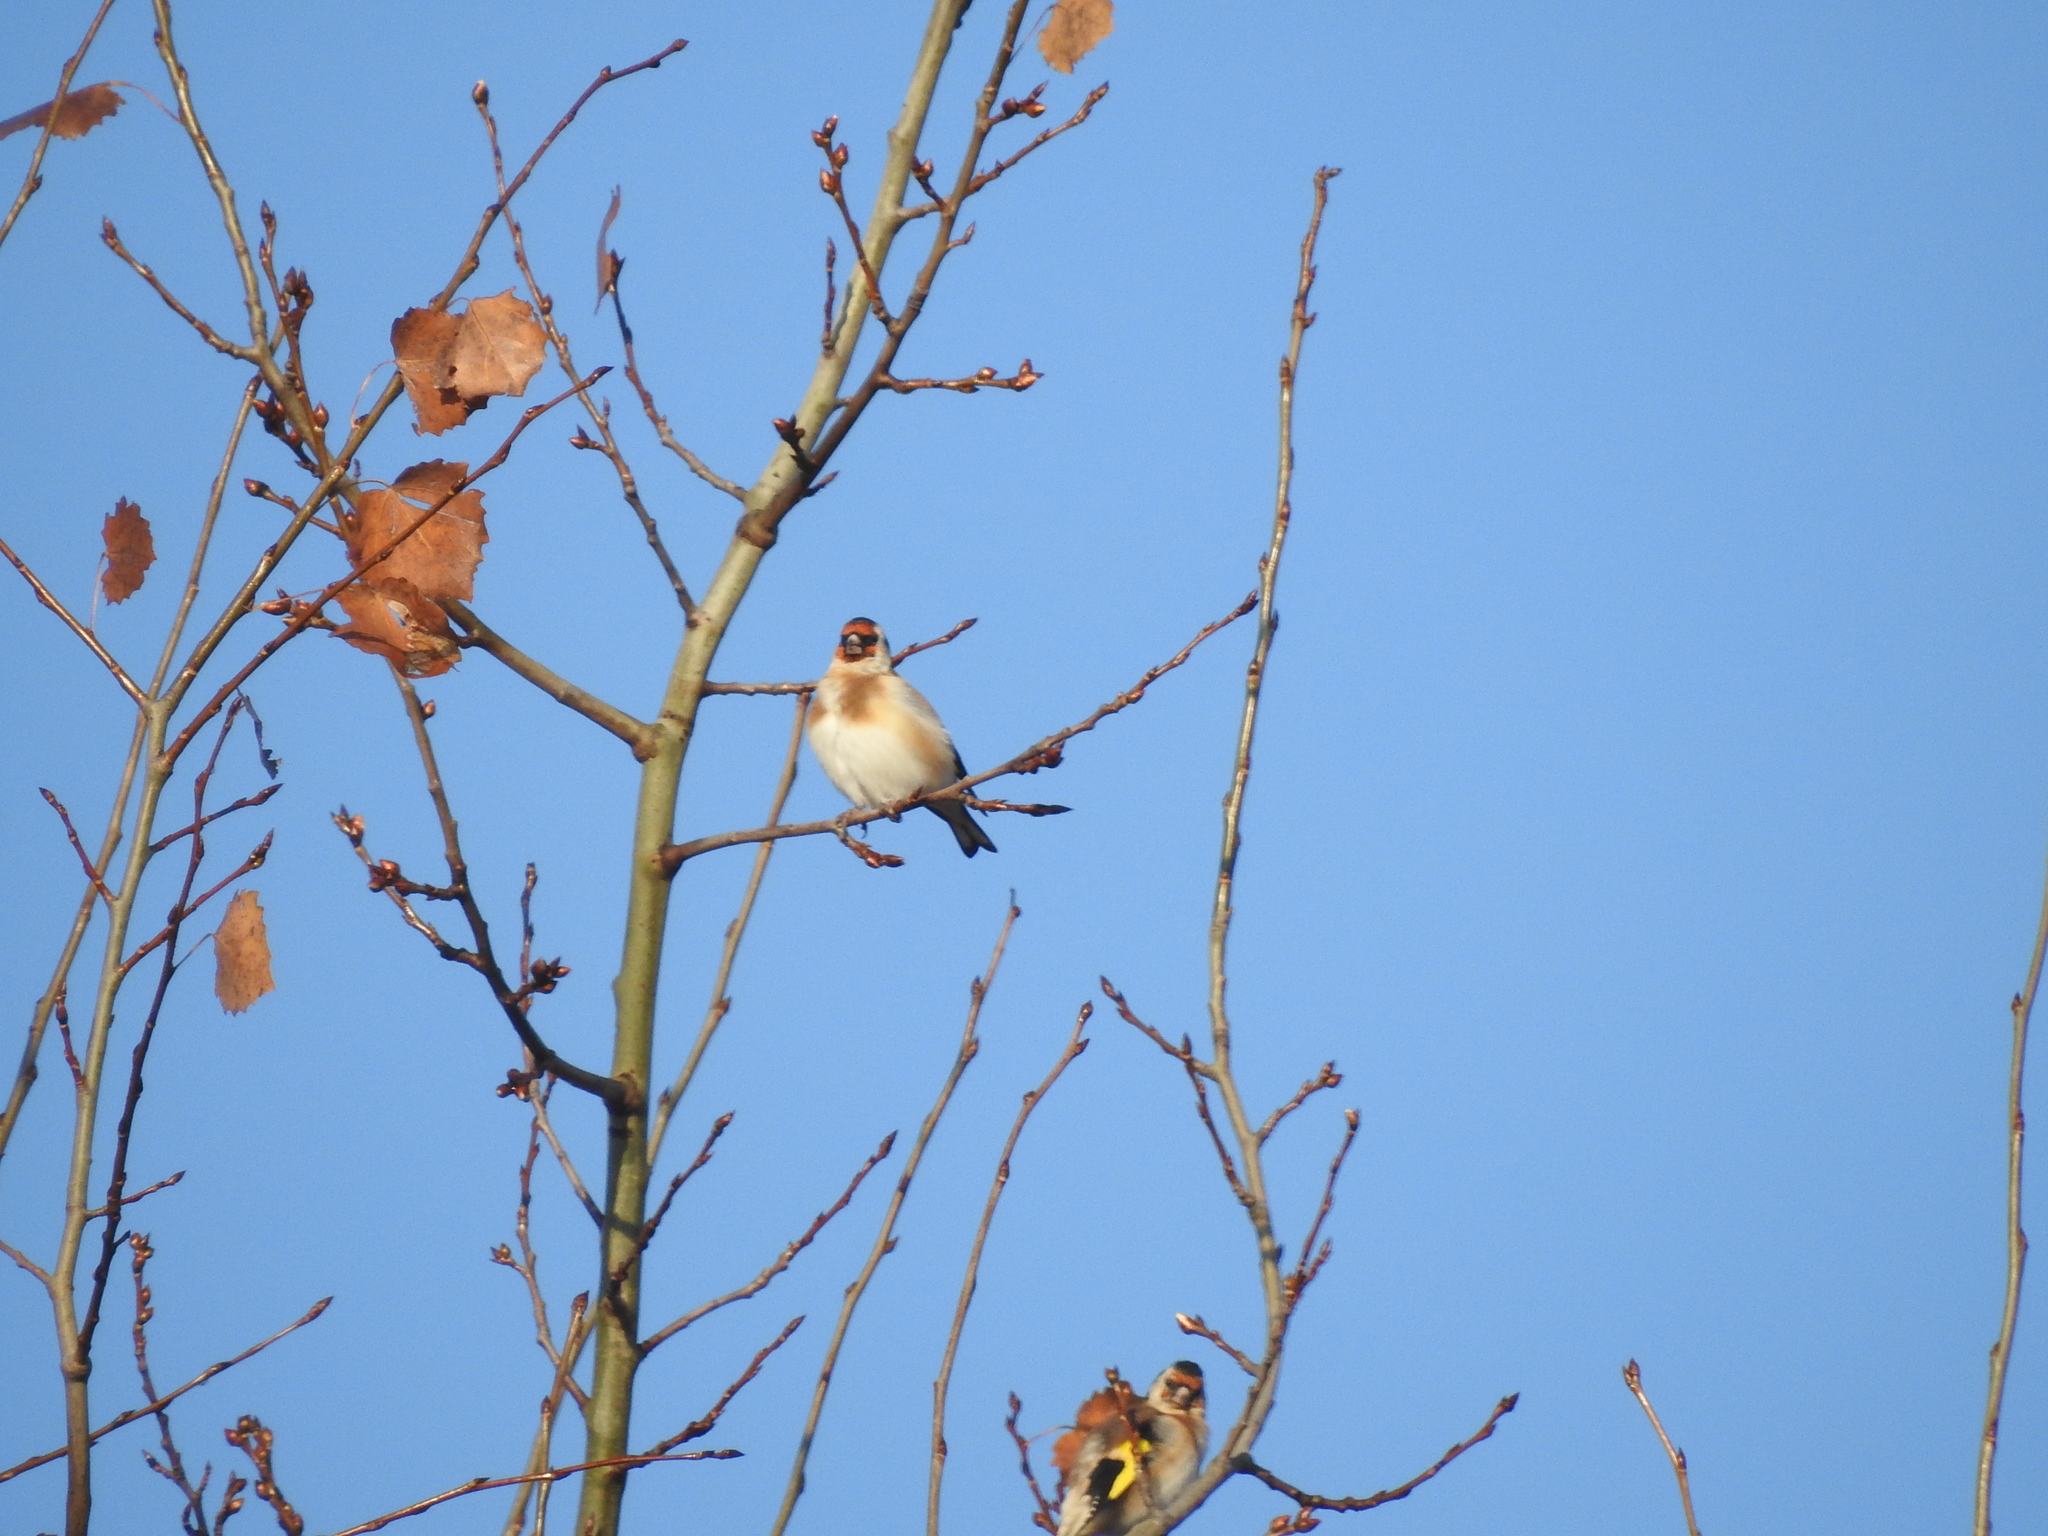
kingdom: Animalia
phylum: Chordata
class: Aves
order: Passeriformes
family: Fringillidae
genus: Carduelis
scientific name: Carduelis carduelis
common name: European goldfinch
